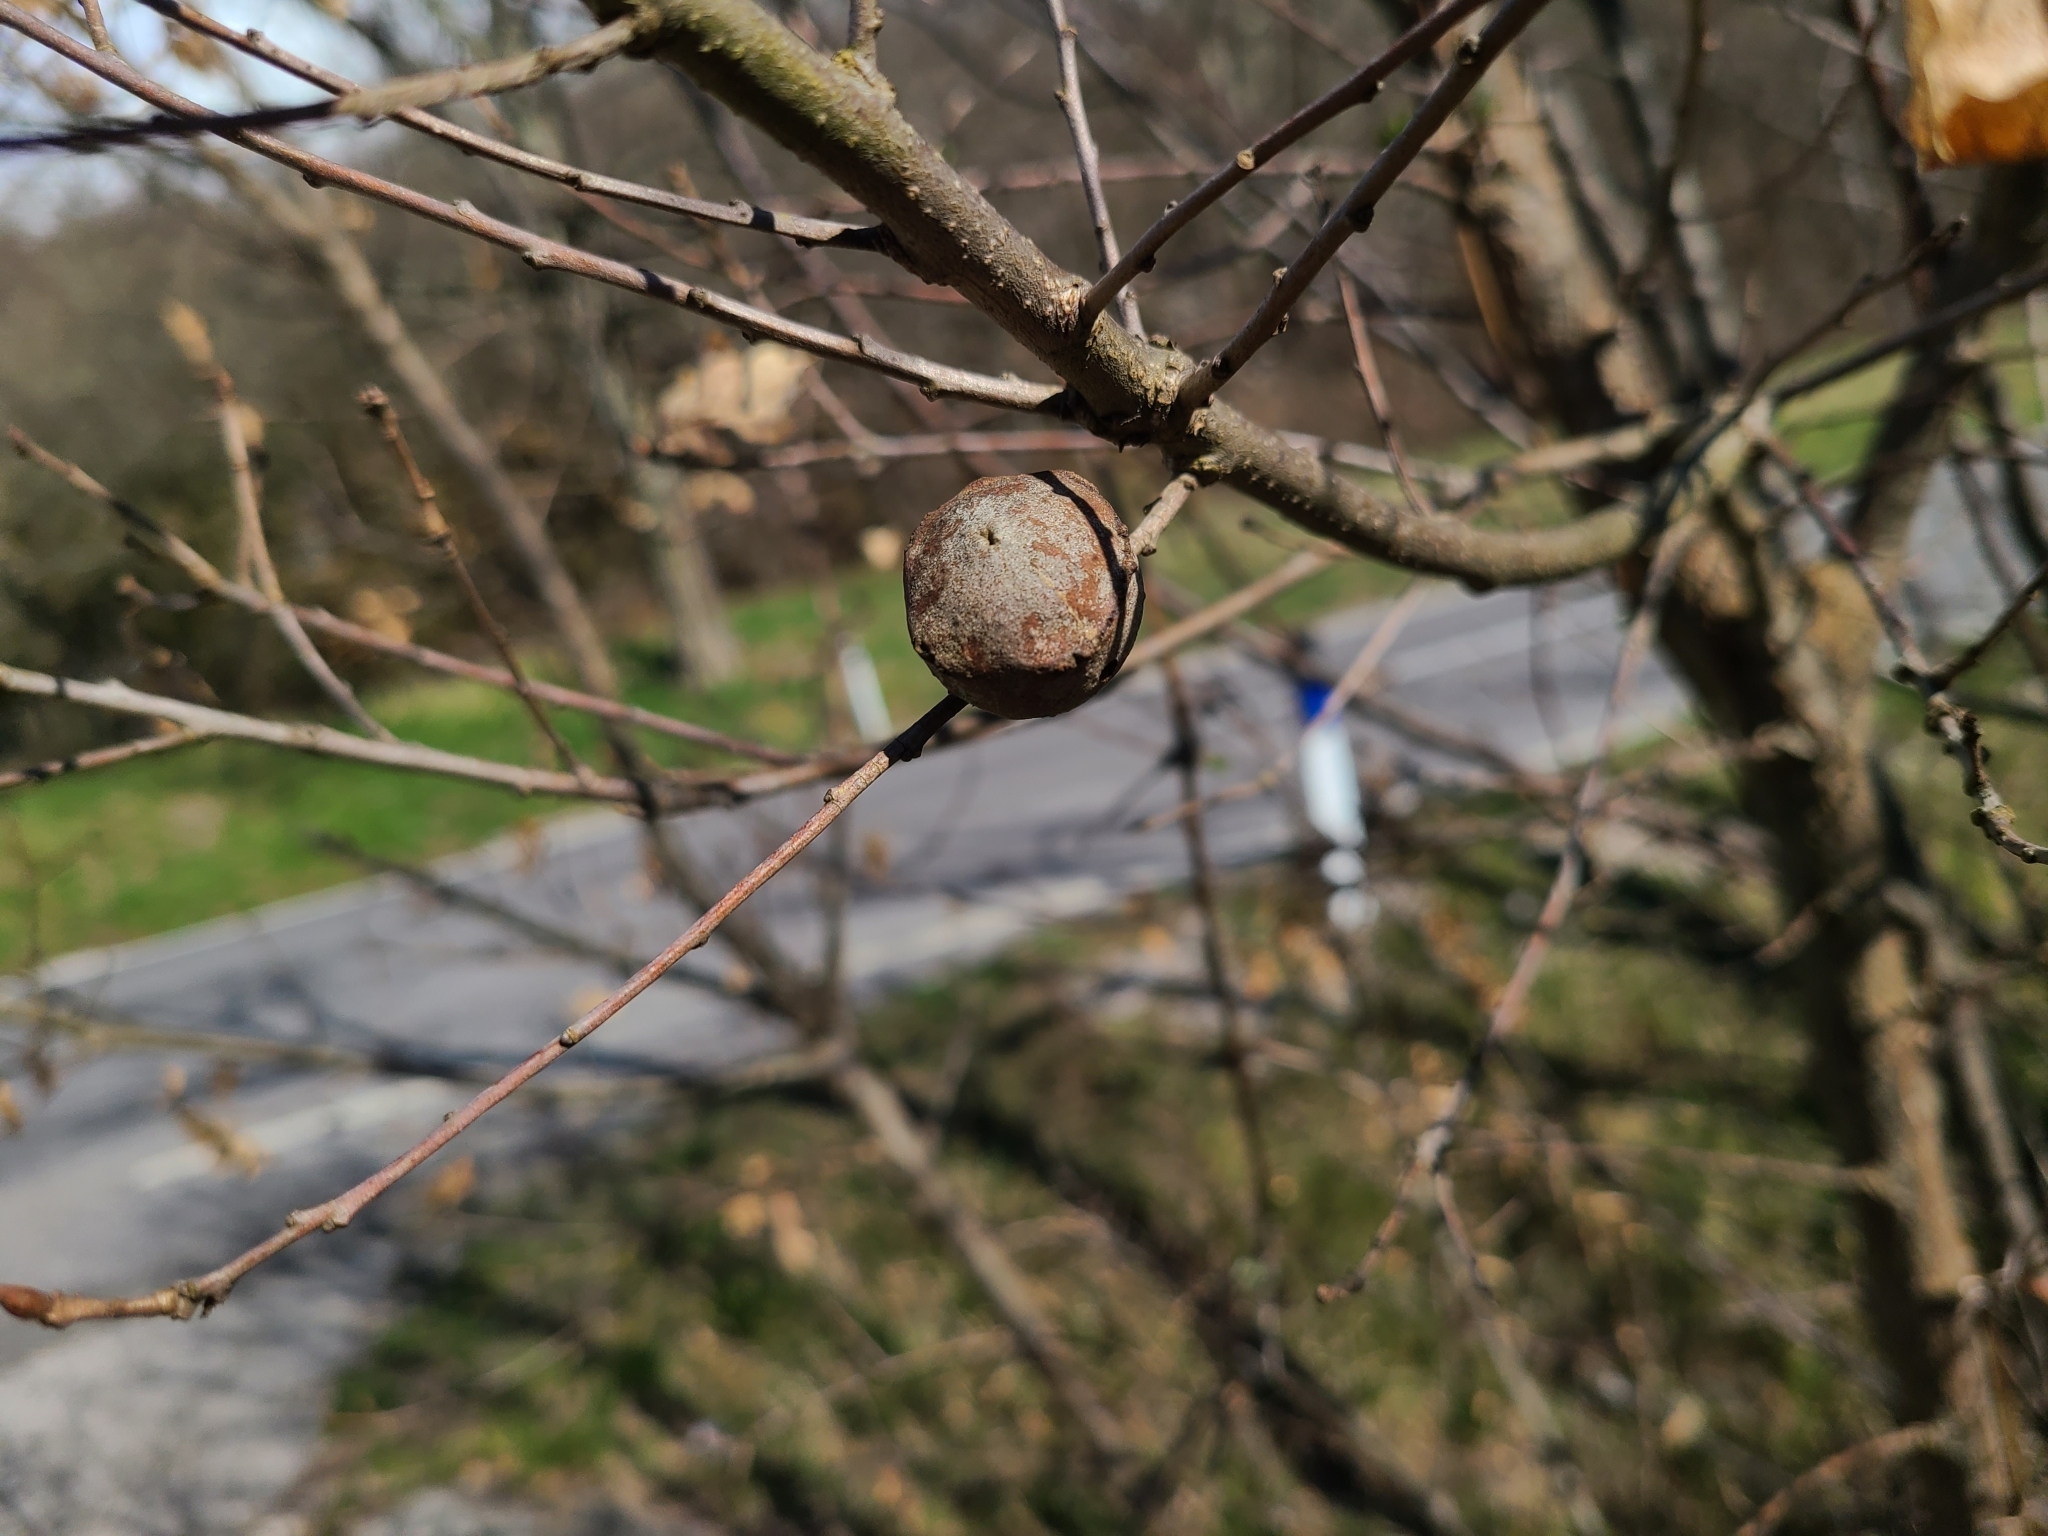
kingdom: Animalia
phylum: Arthropoda
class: Insecta
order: Hymenoptera
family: Cynipidae
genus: Andricus
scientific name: Andricus quercustozae
